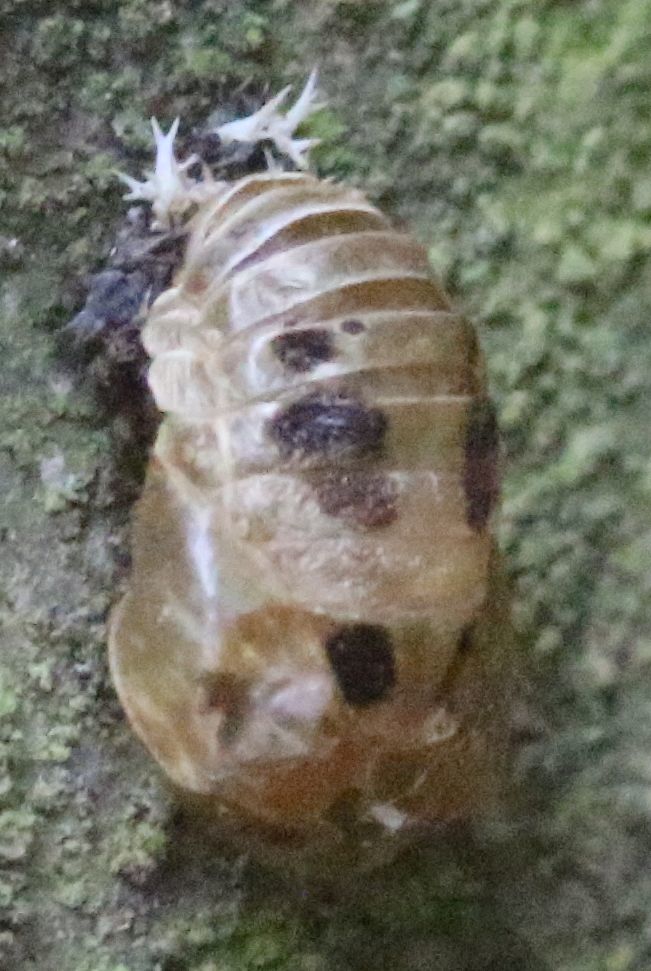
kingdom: Animalia
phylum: Arthropoda
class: Insecta
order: Coleoptera
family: Coccinellidae
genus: Harmonia
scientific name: Harmonia axyridis
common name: Harlequin ladybird
